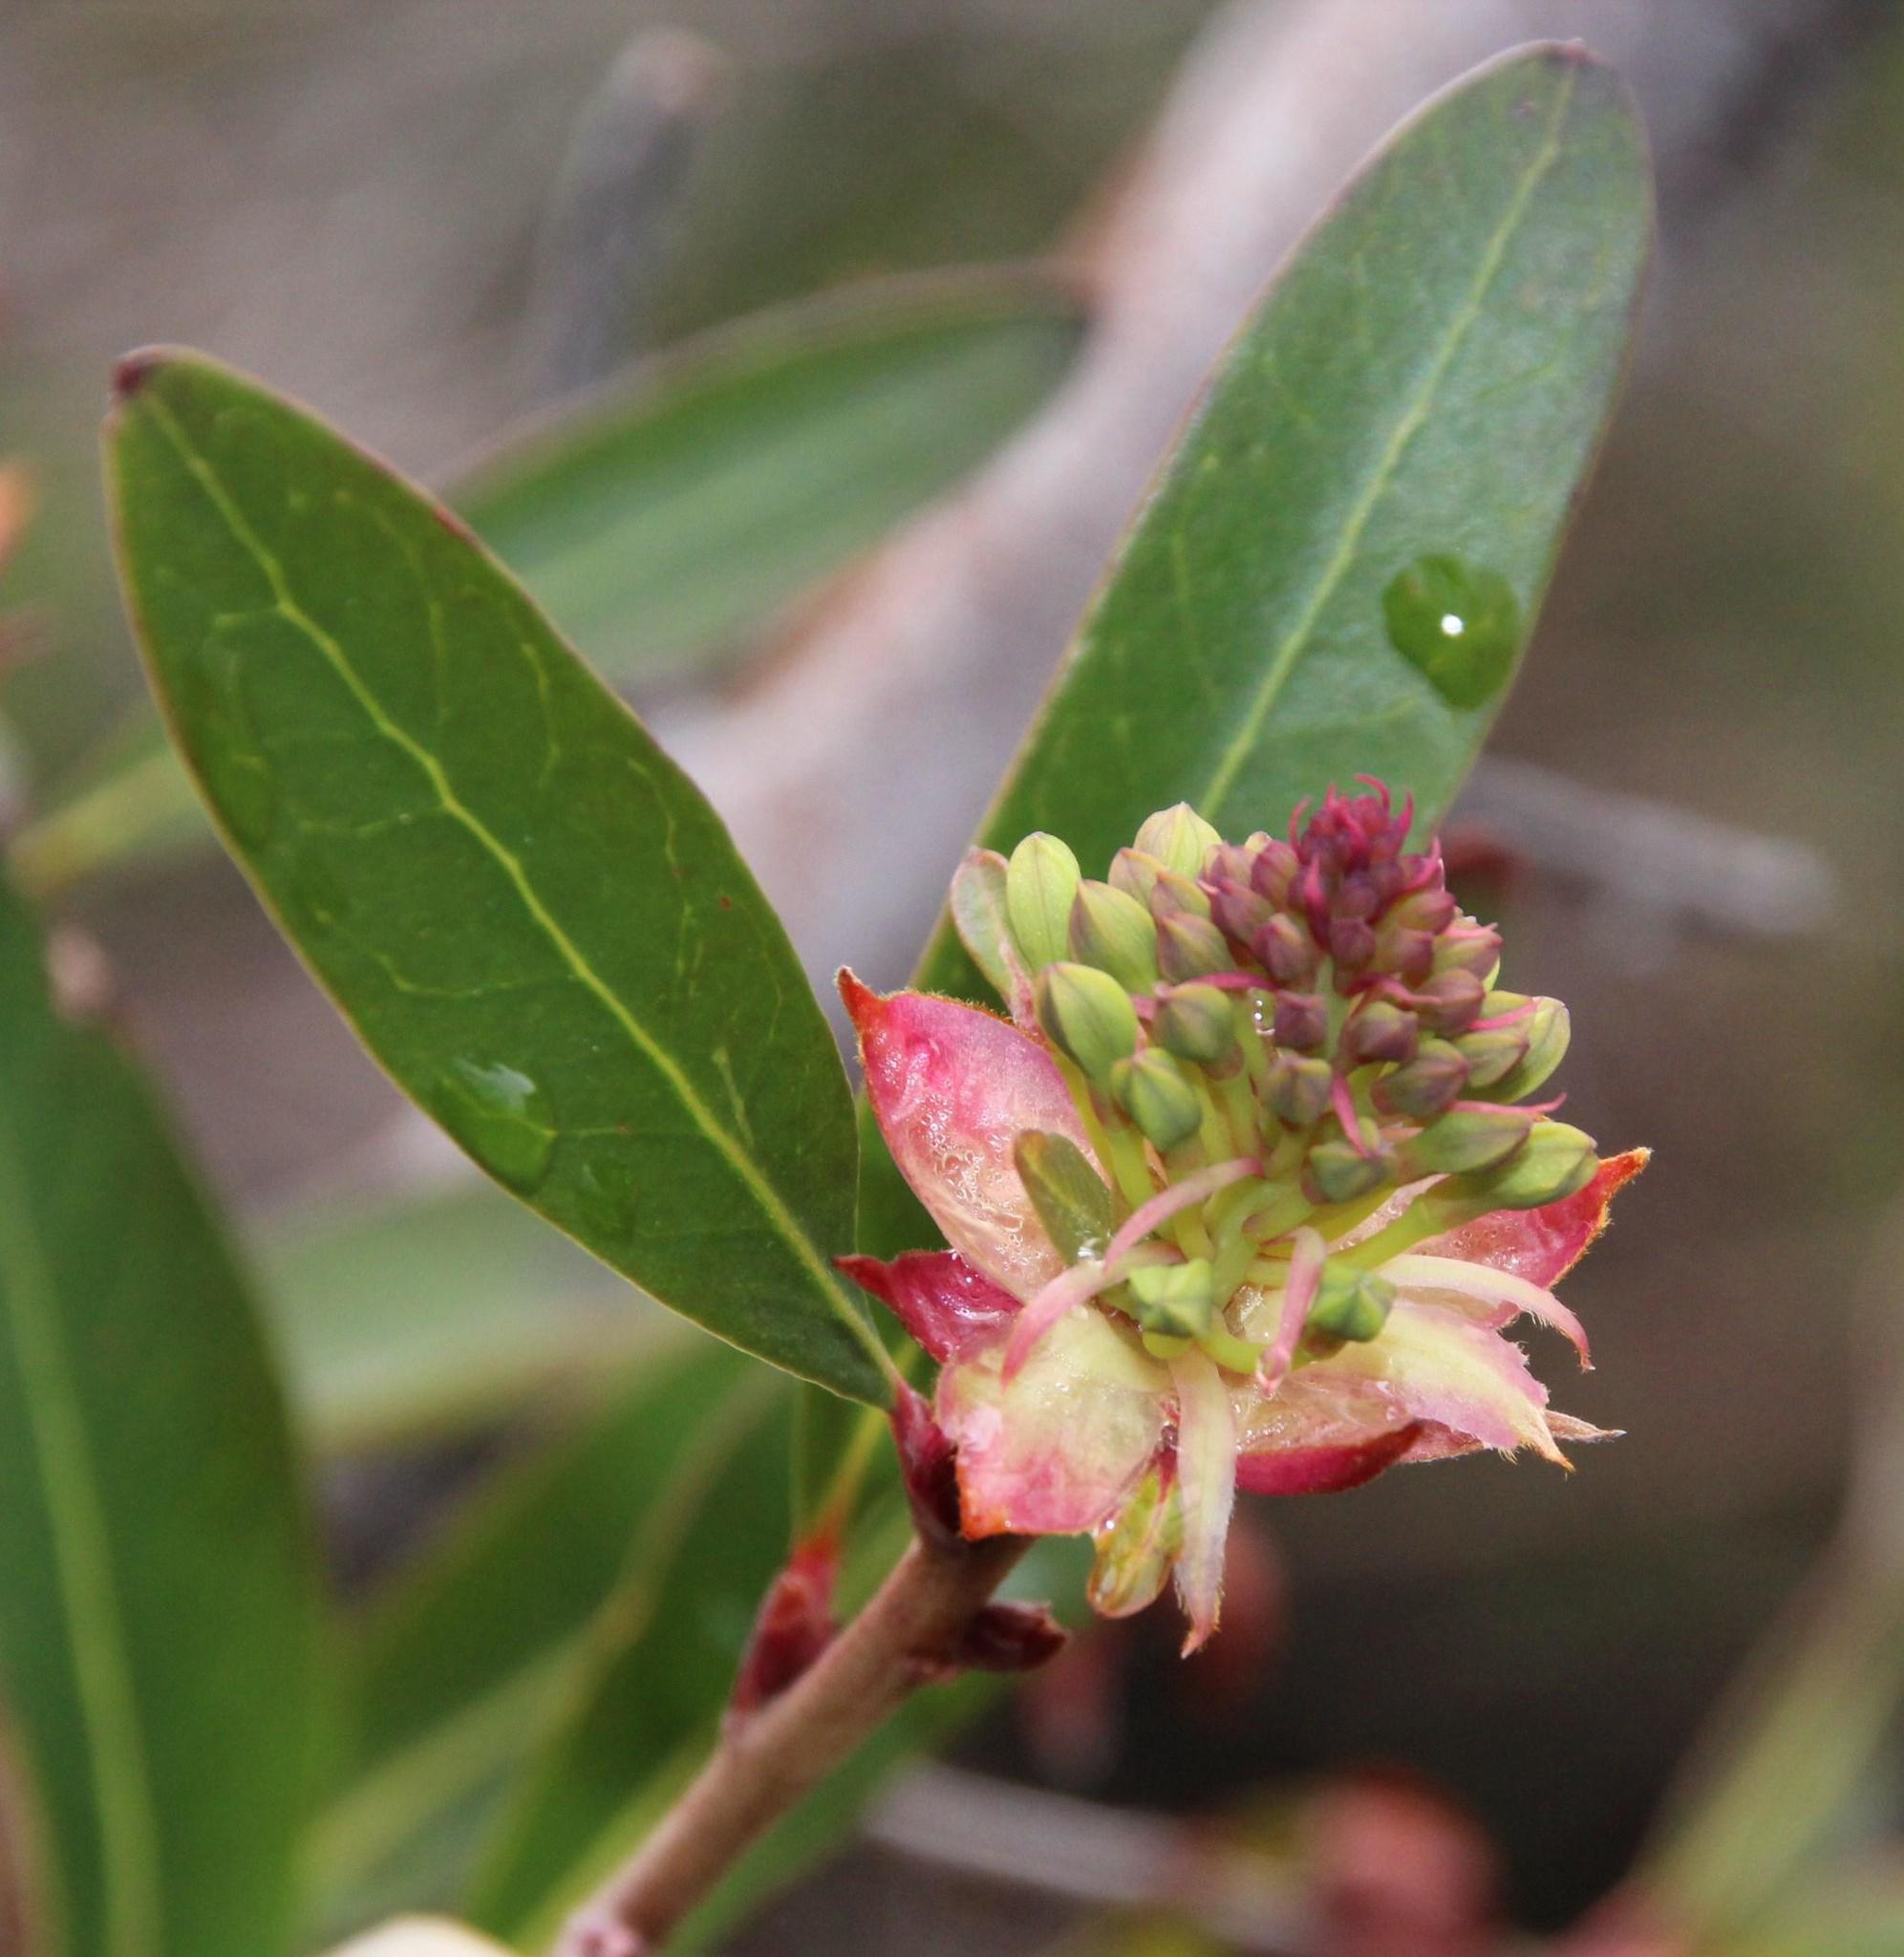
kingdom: Plantae
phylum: Tracheophyta
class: Magnoliopsida
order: Proteales
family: Proteaceae
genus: Embothrium
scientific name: Embothrium coccineum
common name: Chilean firebush
